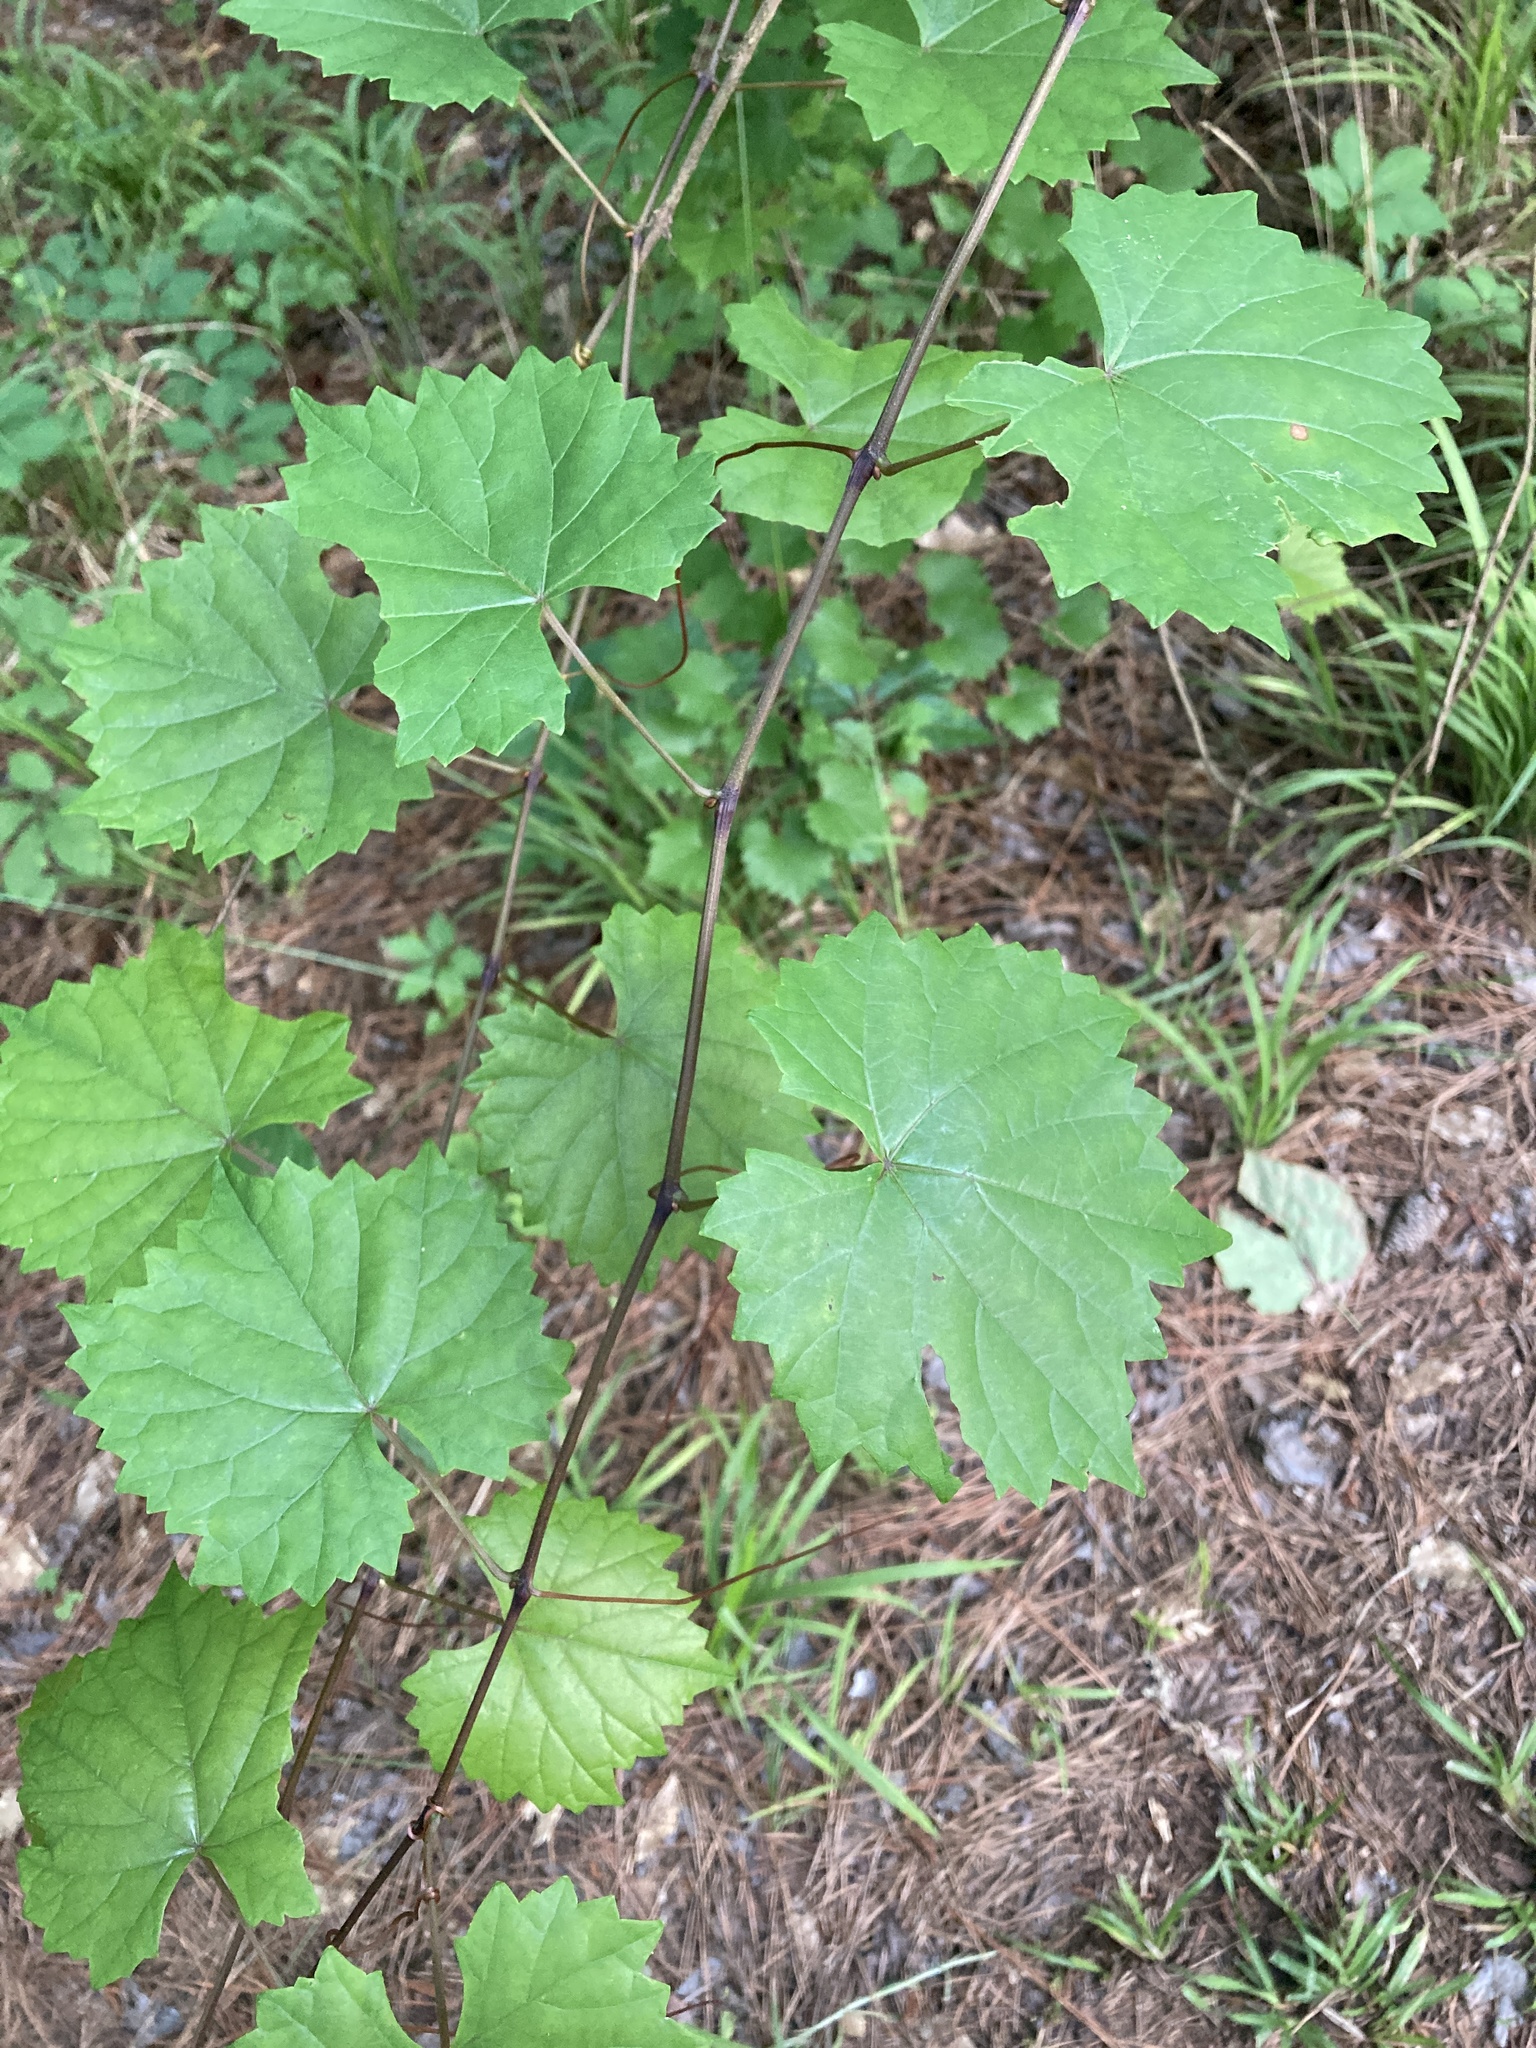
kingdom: Plantae
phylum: Tracheophyta
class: Magnoliopsida
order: Vitales
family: Vitaceae
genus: Vitis
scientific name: Vitis rotundifolia
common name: Muscadine grape
